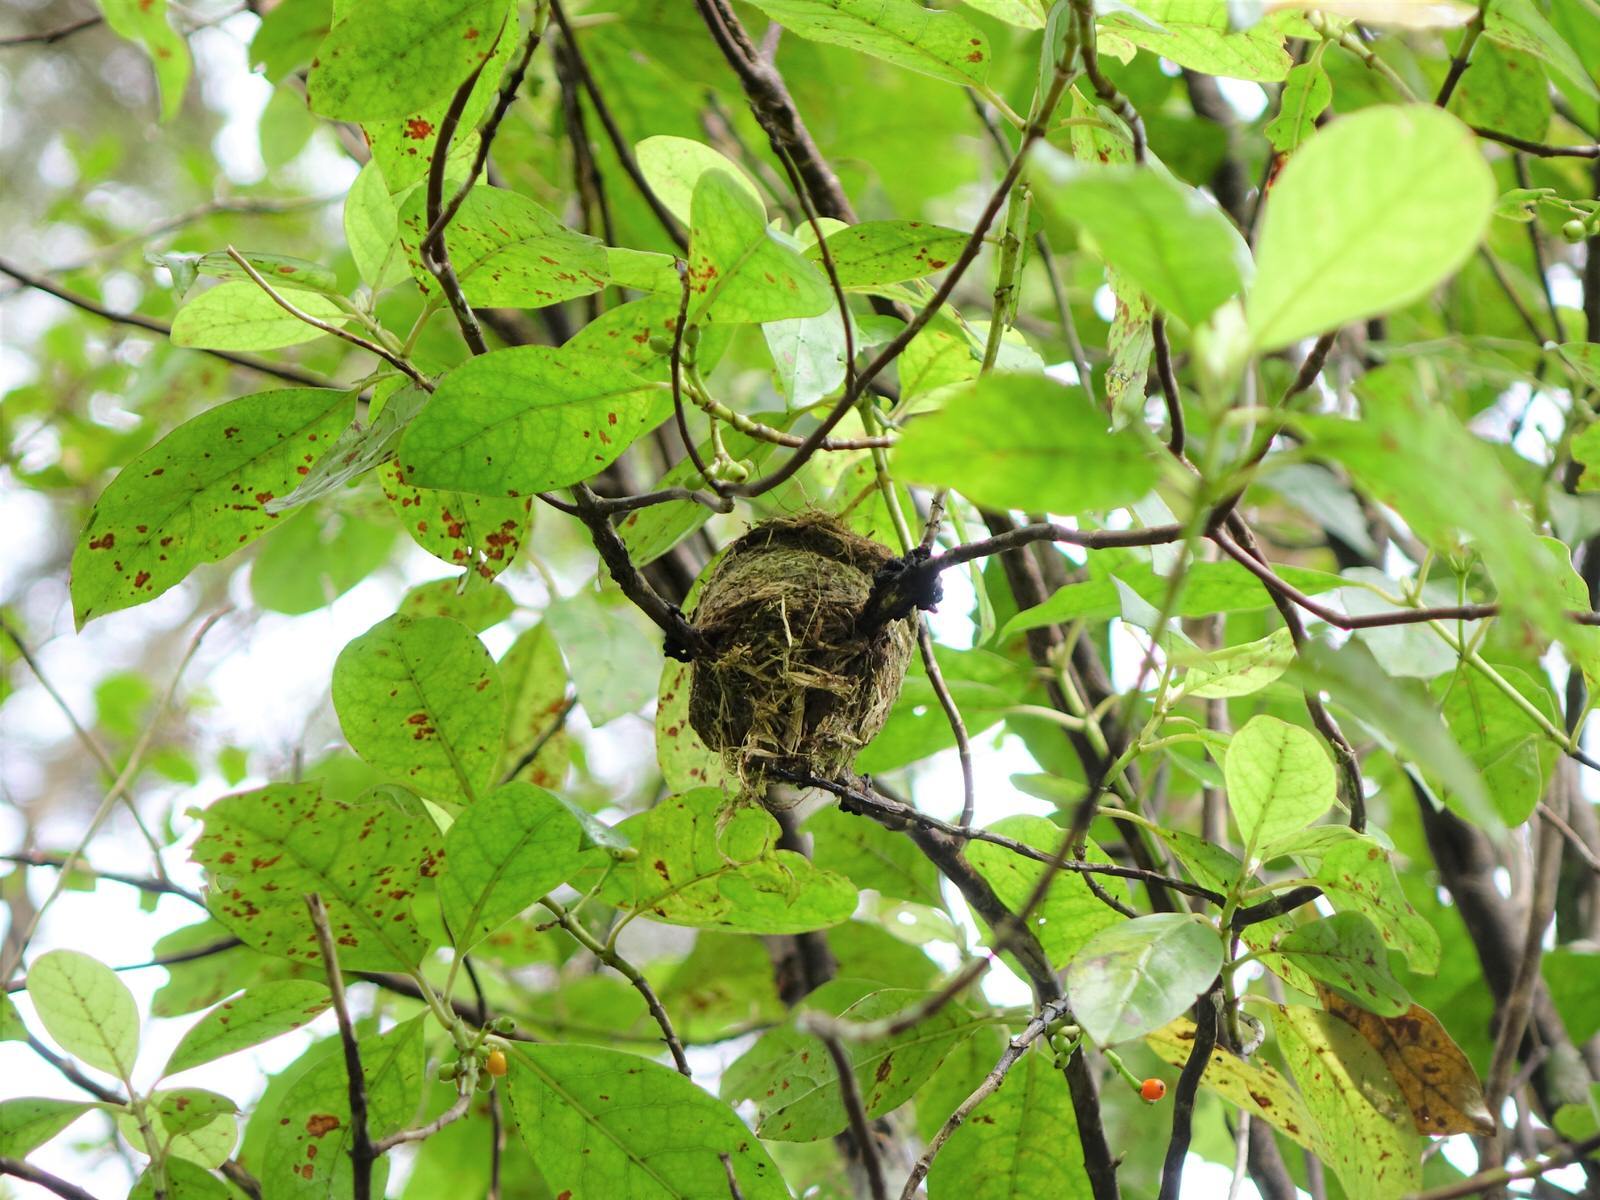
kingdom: Animalia
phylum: Chordata
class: Aves
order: Passeriformes
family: Rhipiduridae
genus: Rhipidura
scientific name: Rhipidura fuliginosa
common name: New zealand fantail
